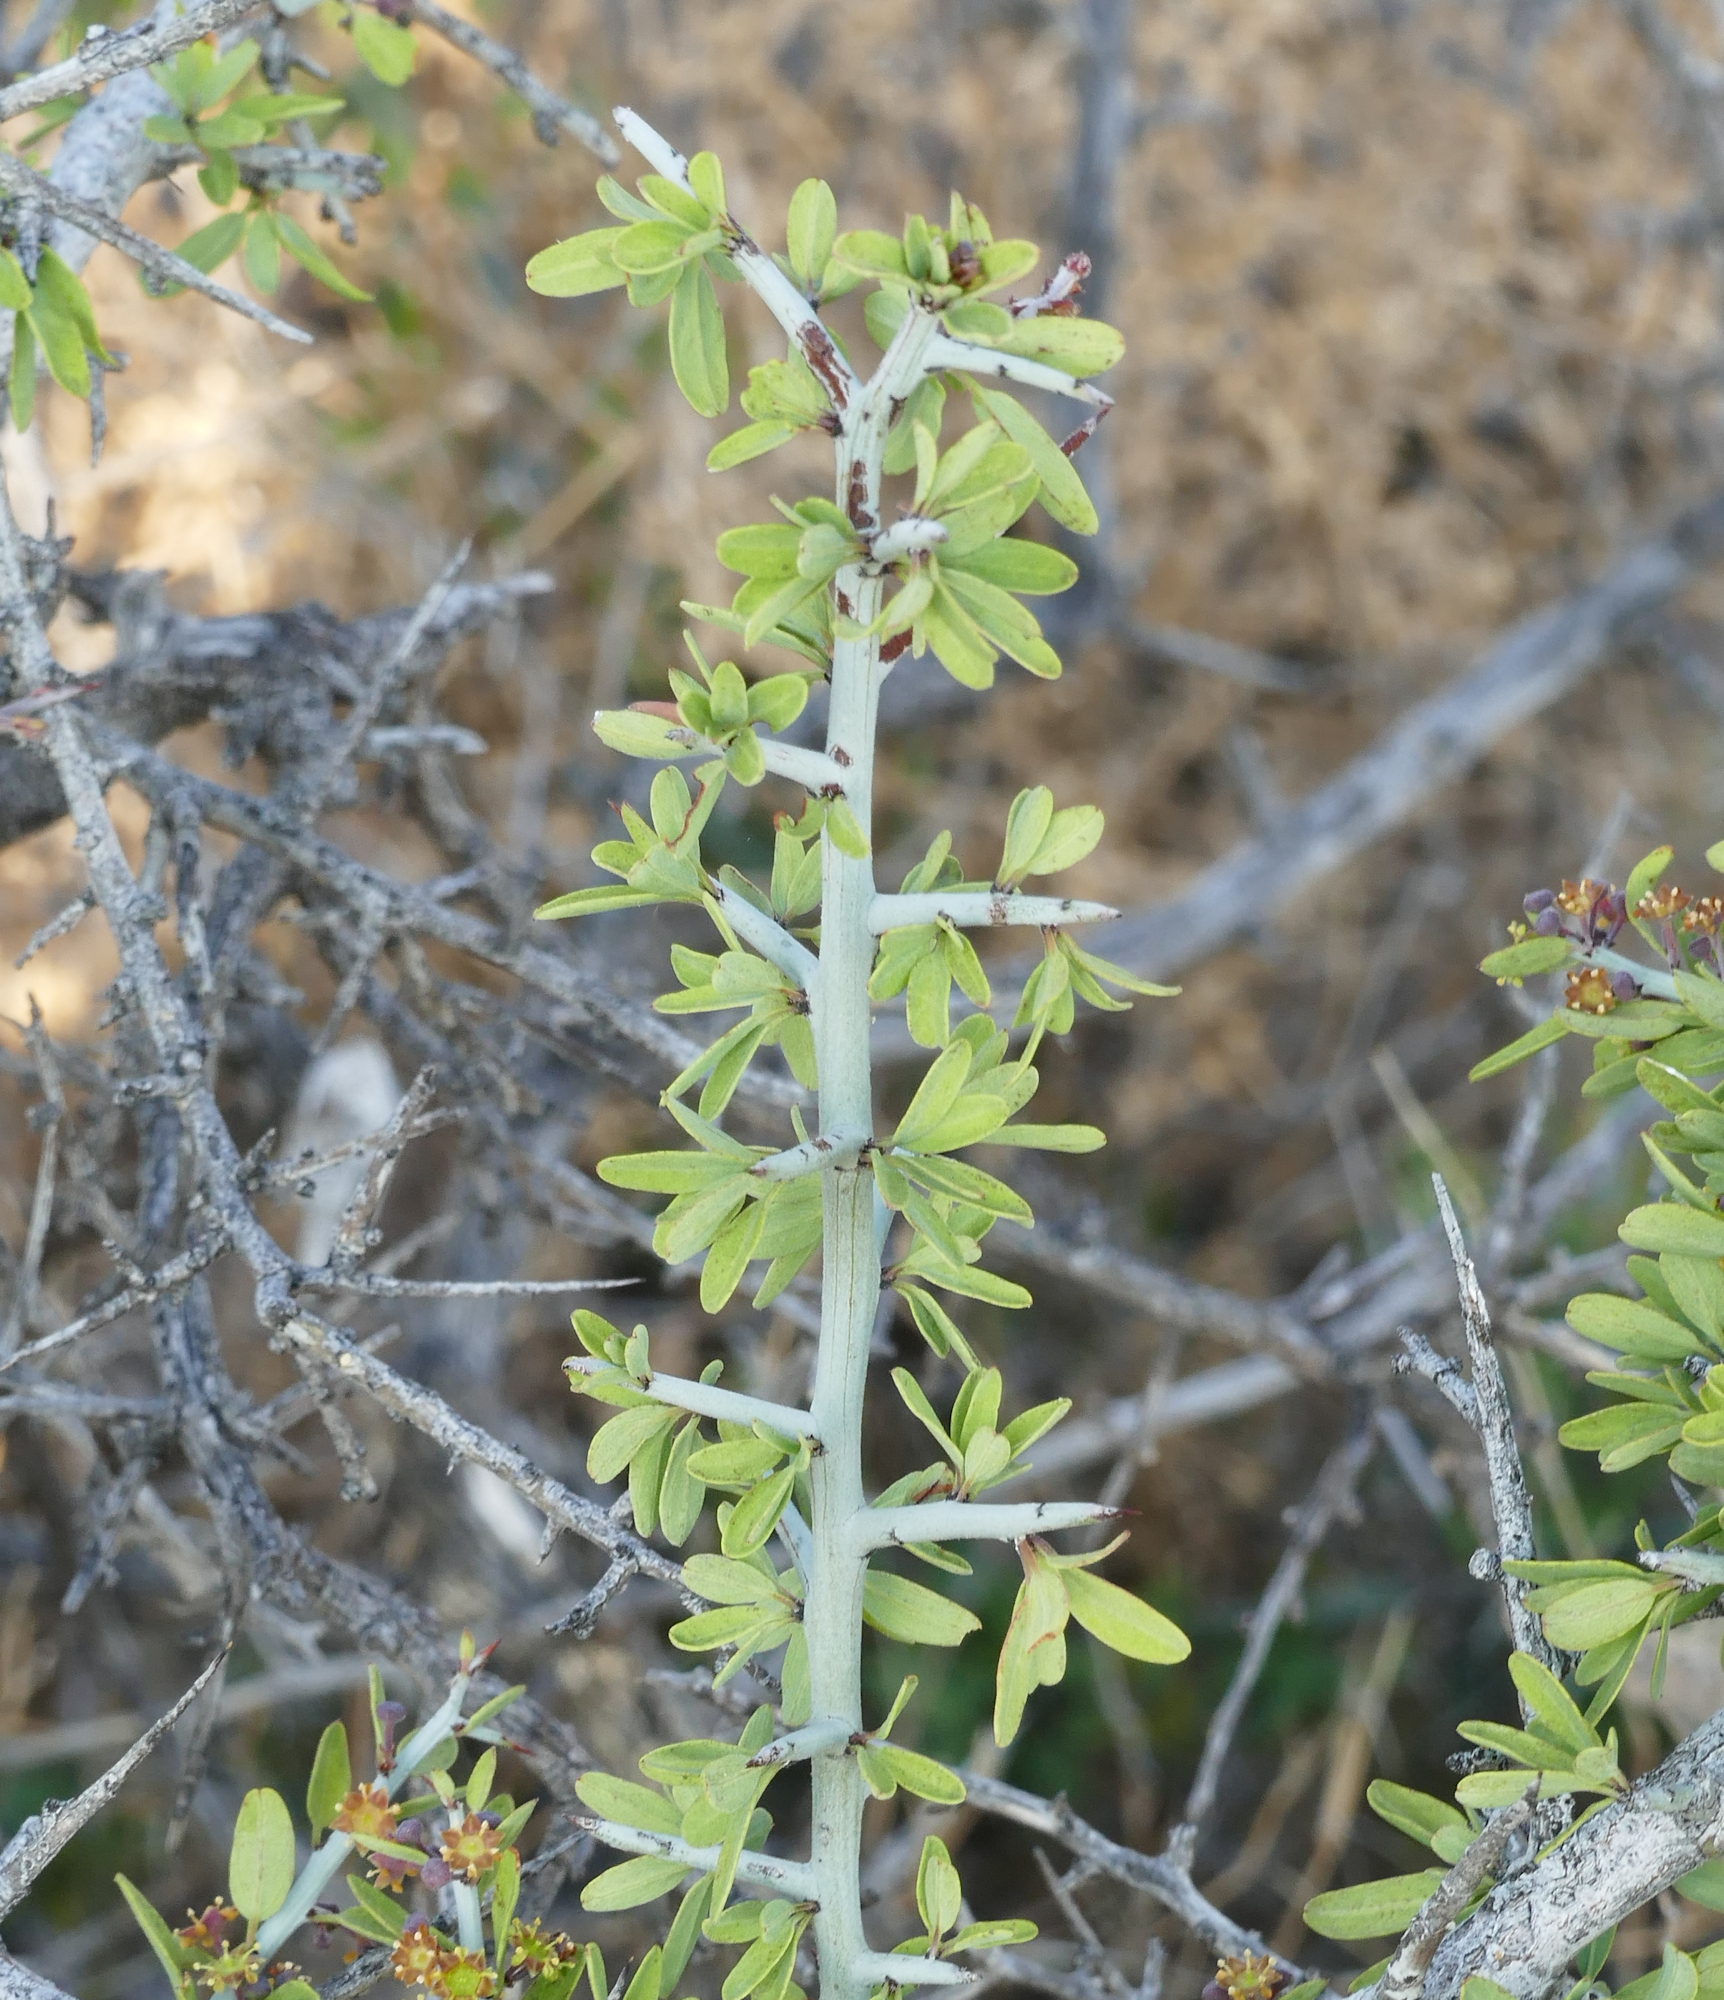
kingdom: Plantae
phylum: Tracheophyta
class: Magnoliopsida
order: Rosales
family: Rhamnaceae
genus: Sarcomphalus
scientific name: Sarcomphalus obtusifolius
